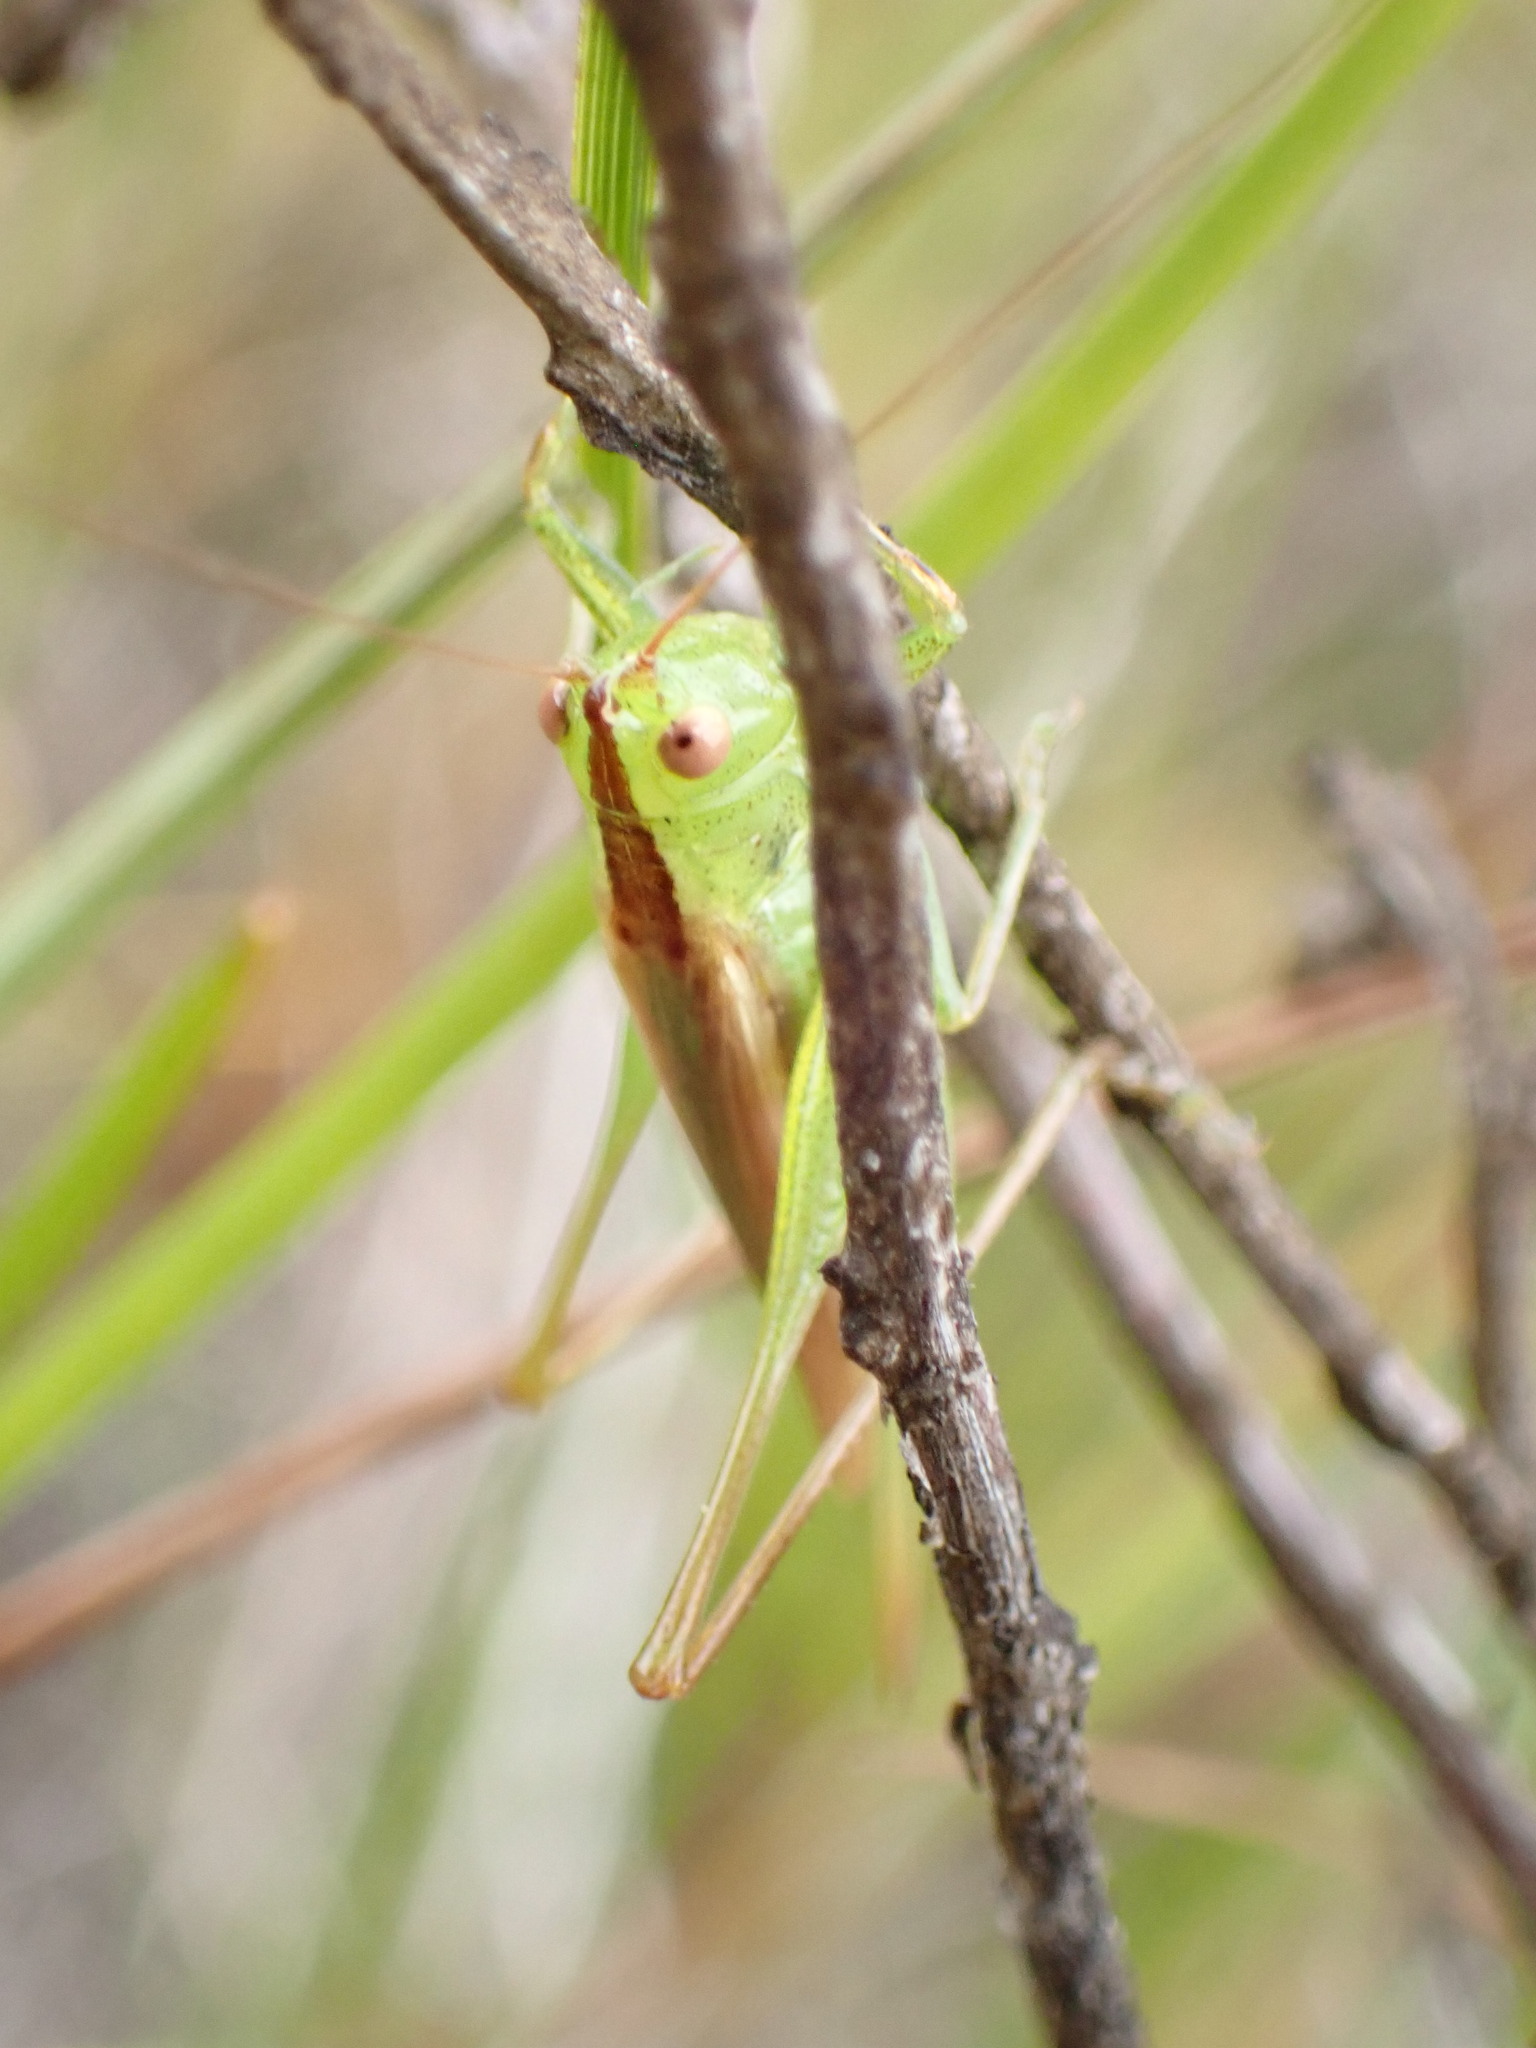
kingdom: Animalia
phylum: Arthropoda
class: Insecta
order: Orthoptera
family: Tettigoniidae
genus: Conocephalus
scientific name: Conocephalus fasciatus
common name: Slender meadow katydid
